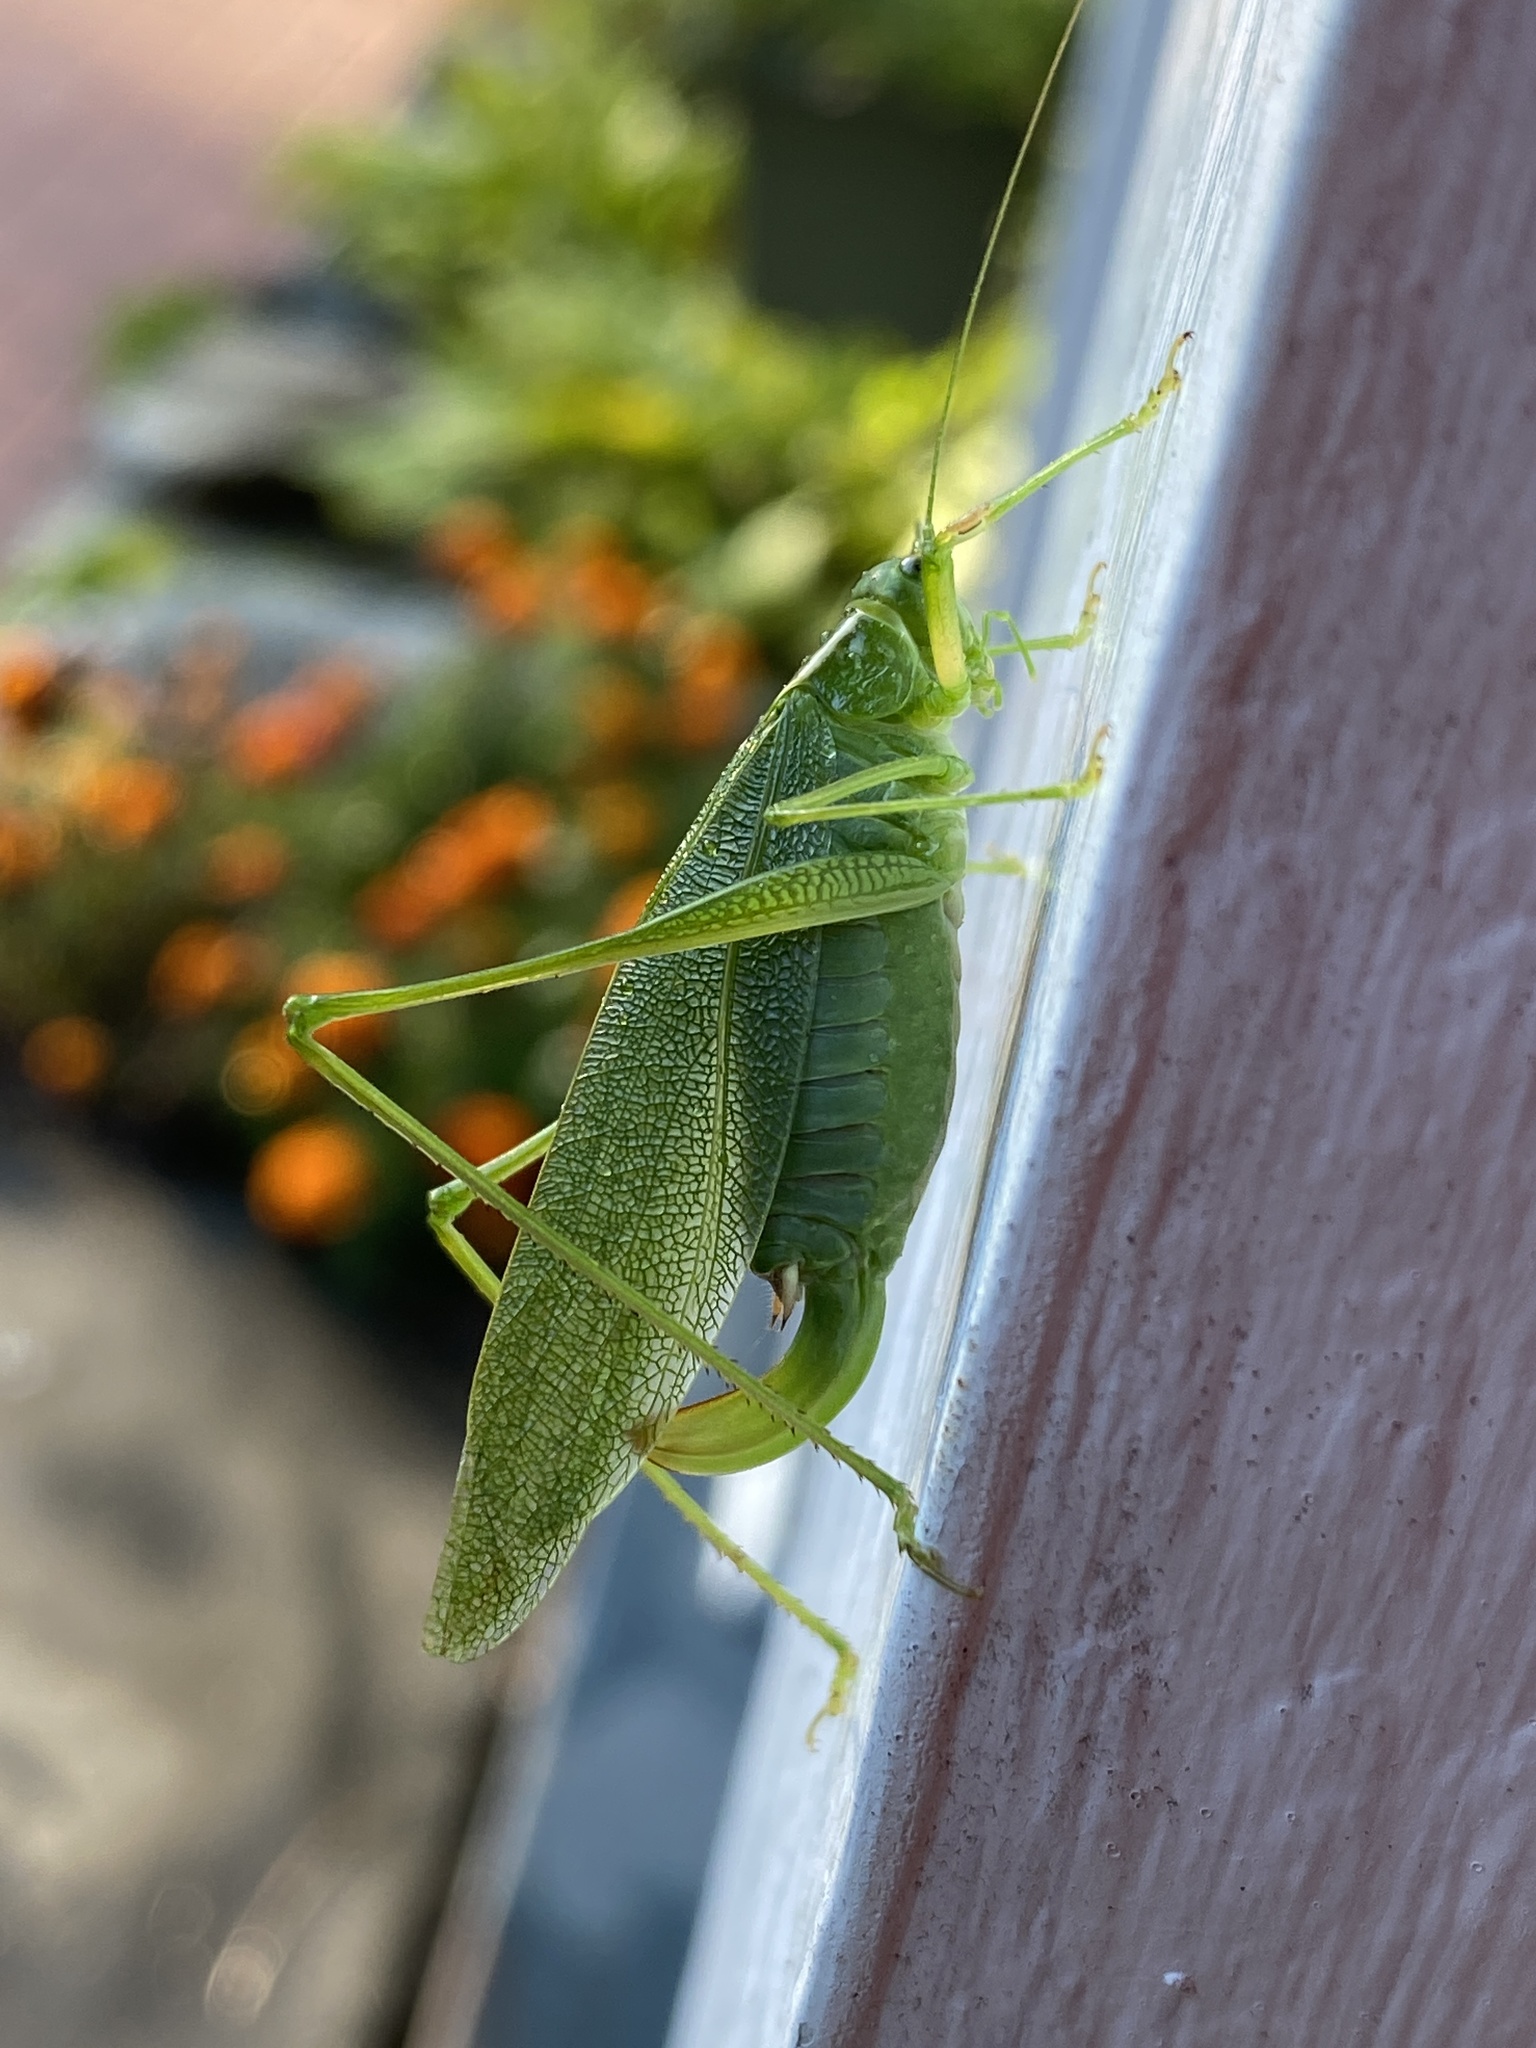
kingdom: Animalia
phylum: Arthropoda
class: Insecta
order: Orthoptera
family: Tettigoniidae
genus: Scudderia
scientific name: Scudderia septentrionalis
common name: Northern bush-katydid
